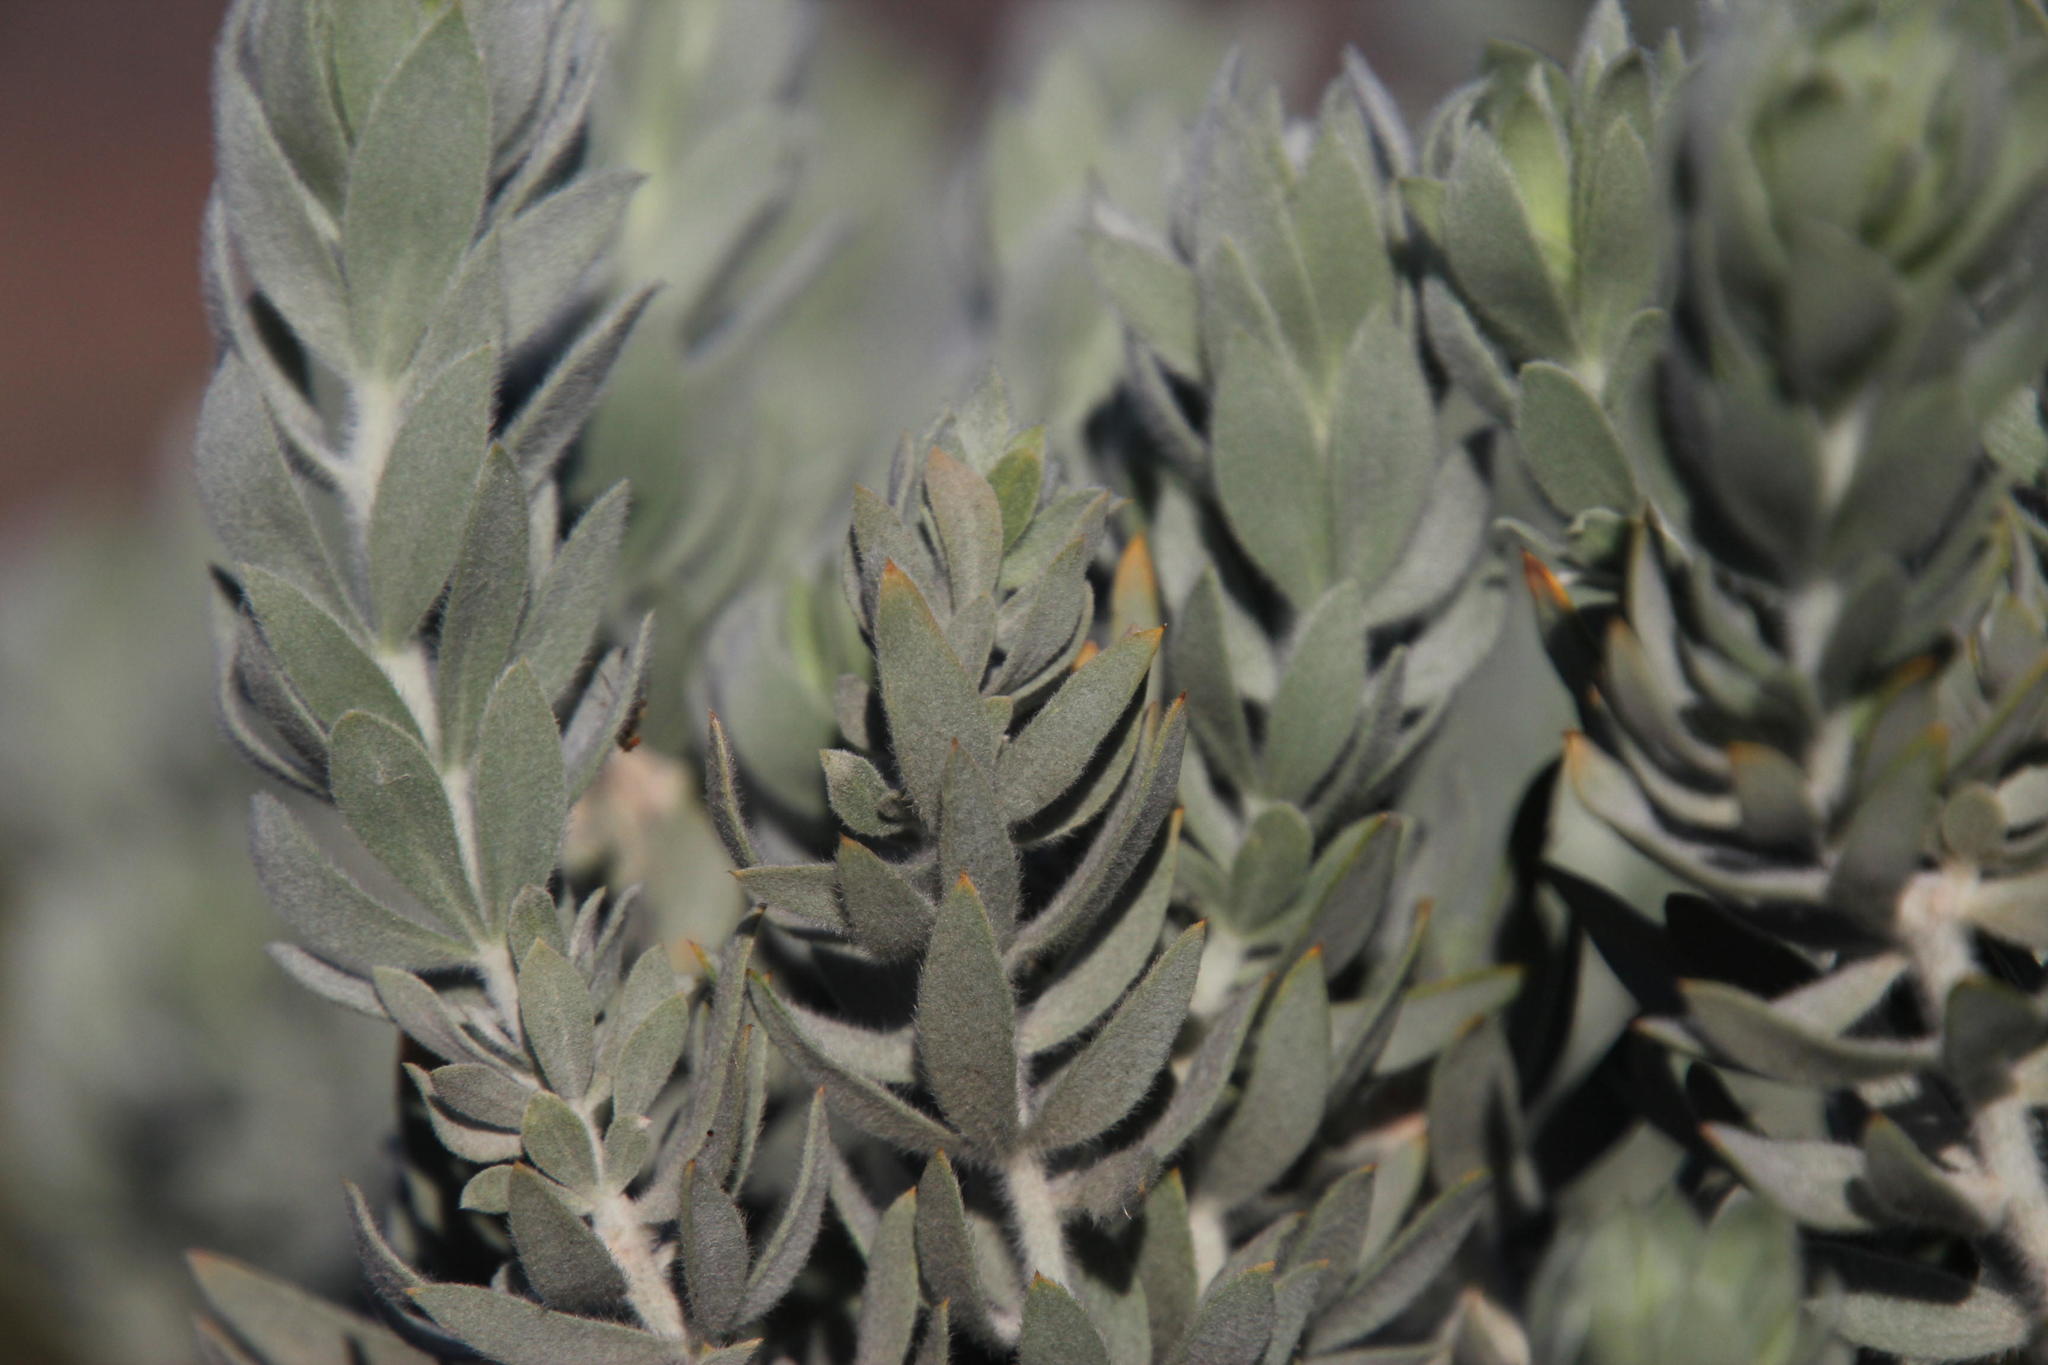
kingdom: Plantae
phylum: Tracheophyta
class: Magnoliopsida
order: Fabales
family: Fabaceae
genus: Aspalathus
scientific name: Aspalathus bidouwensis
